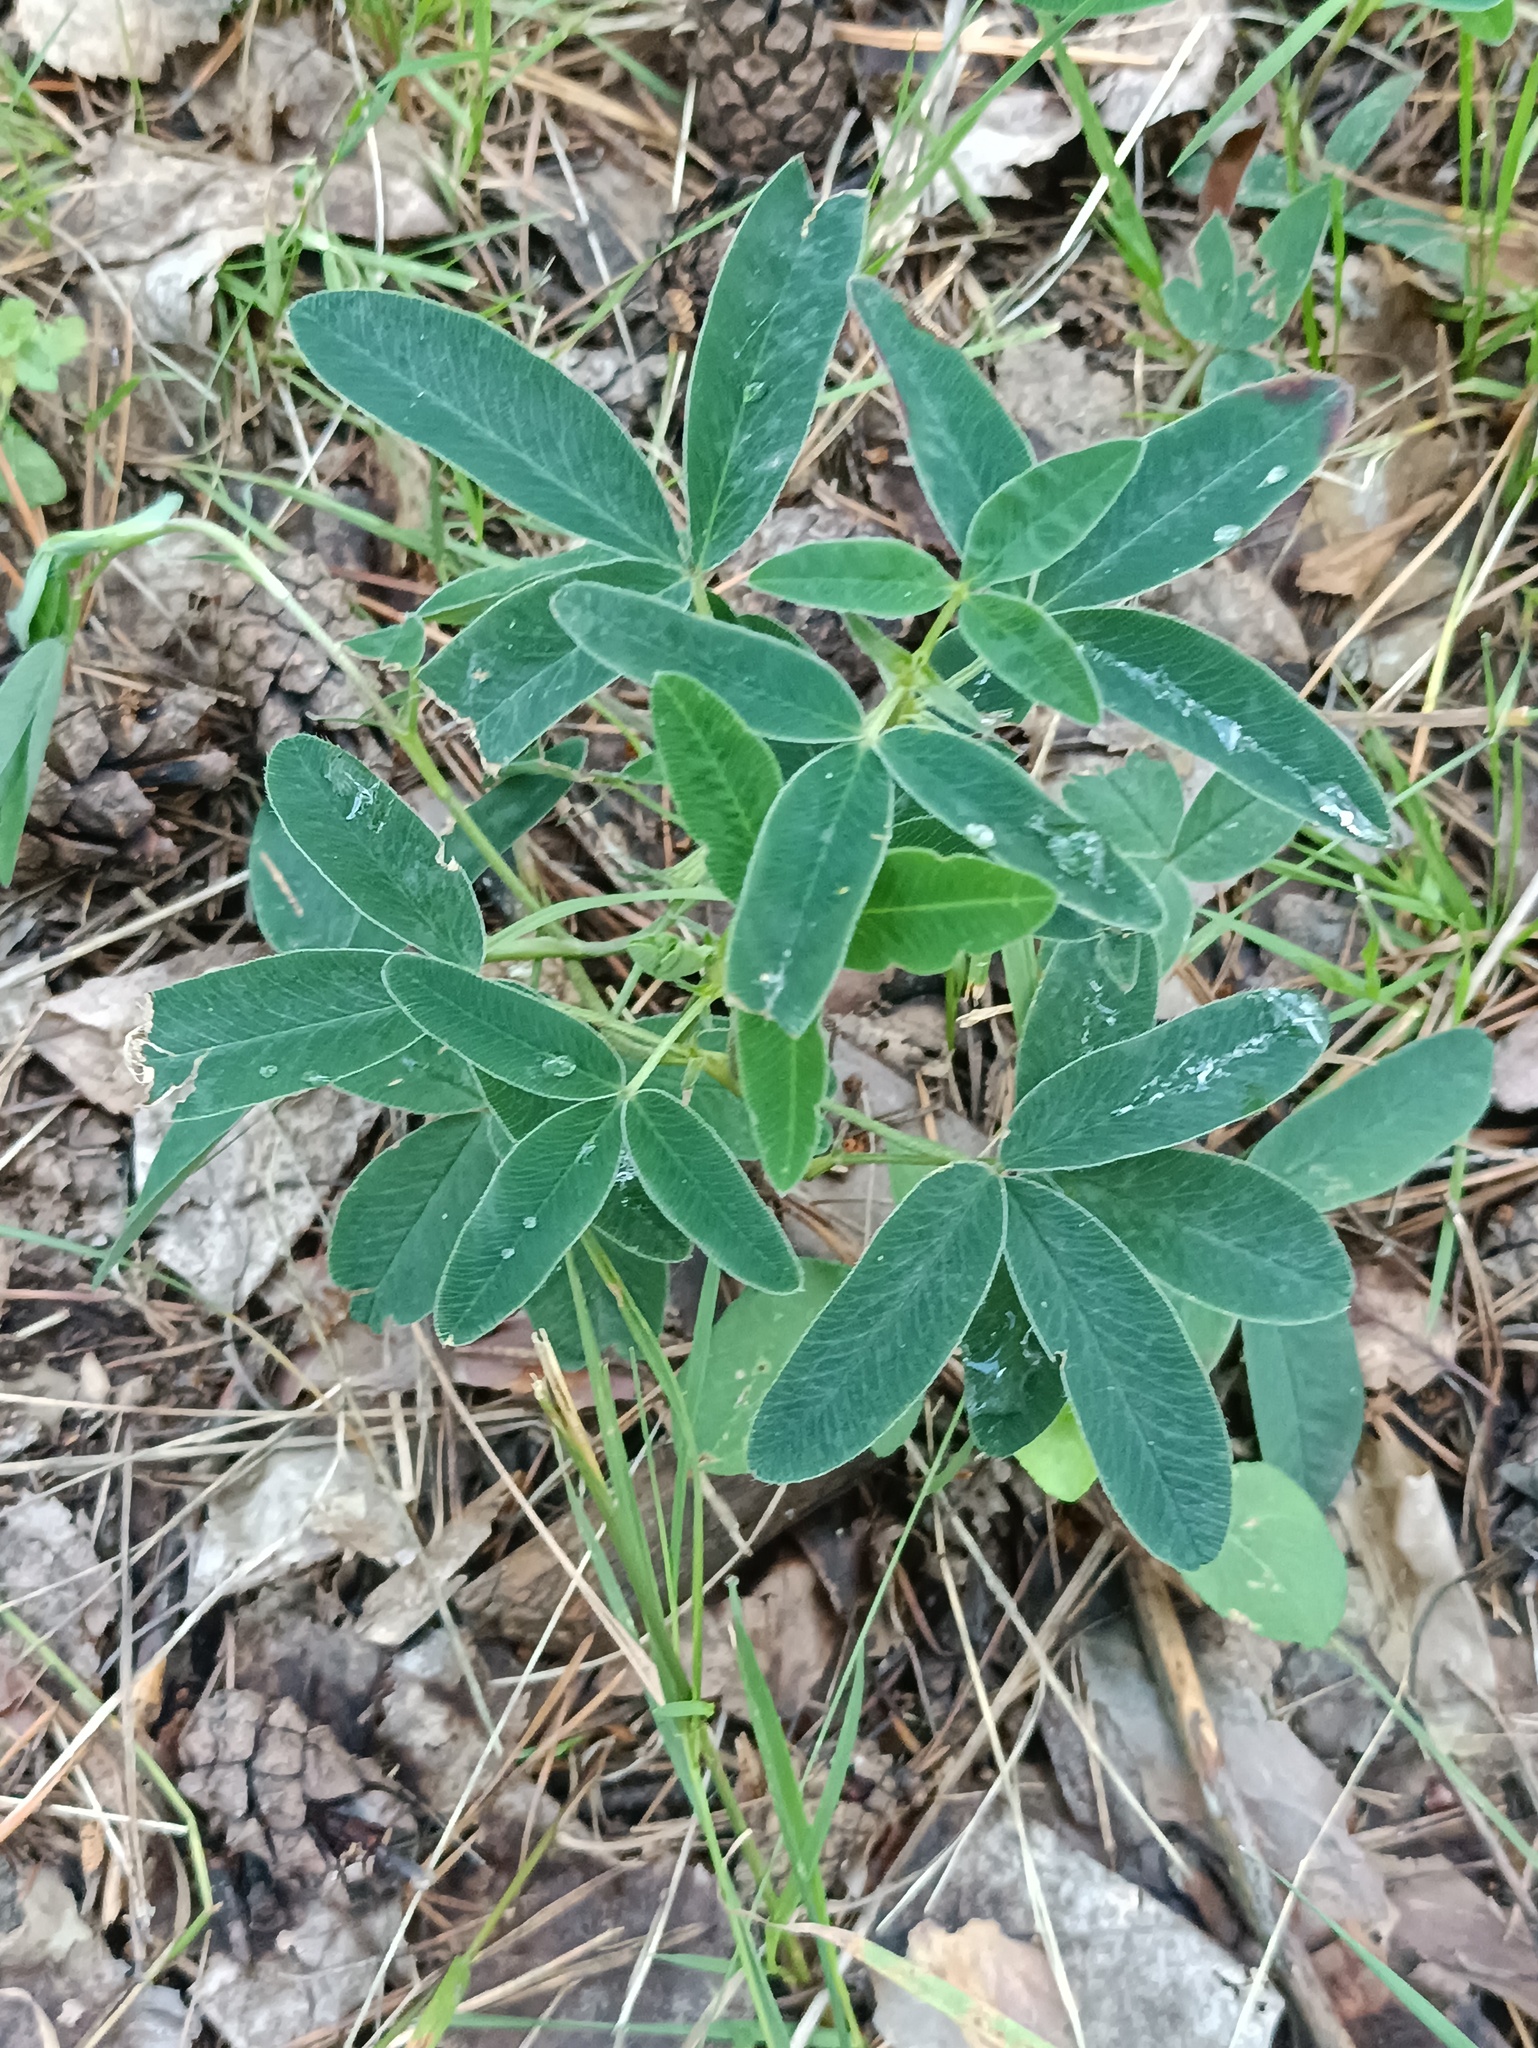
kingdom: Plantae
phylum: Tracheophyta
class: Magnoliopsida
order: Fabales
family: Fabaceae
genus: Trifolium
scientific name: Trifolium medium
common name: Zigzag clover
